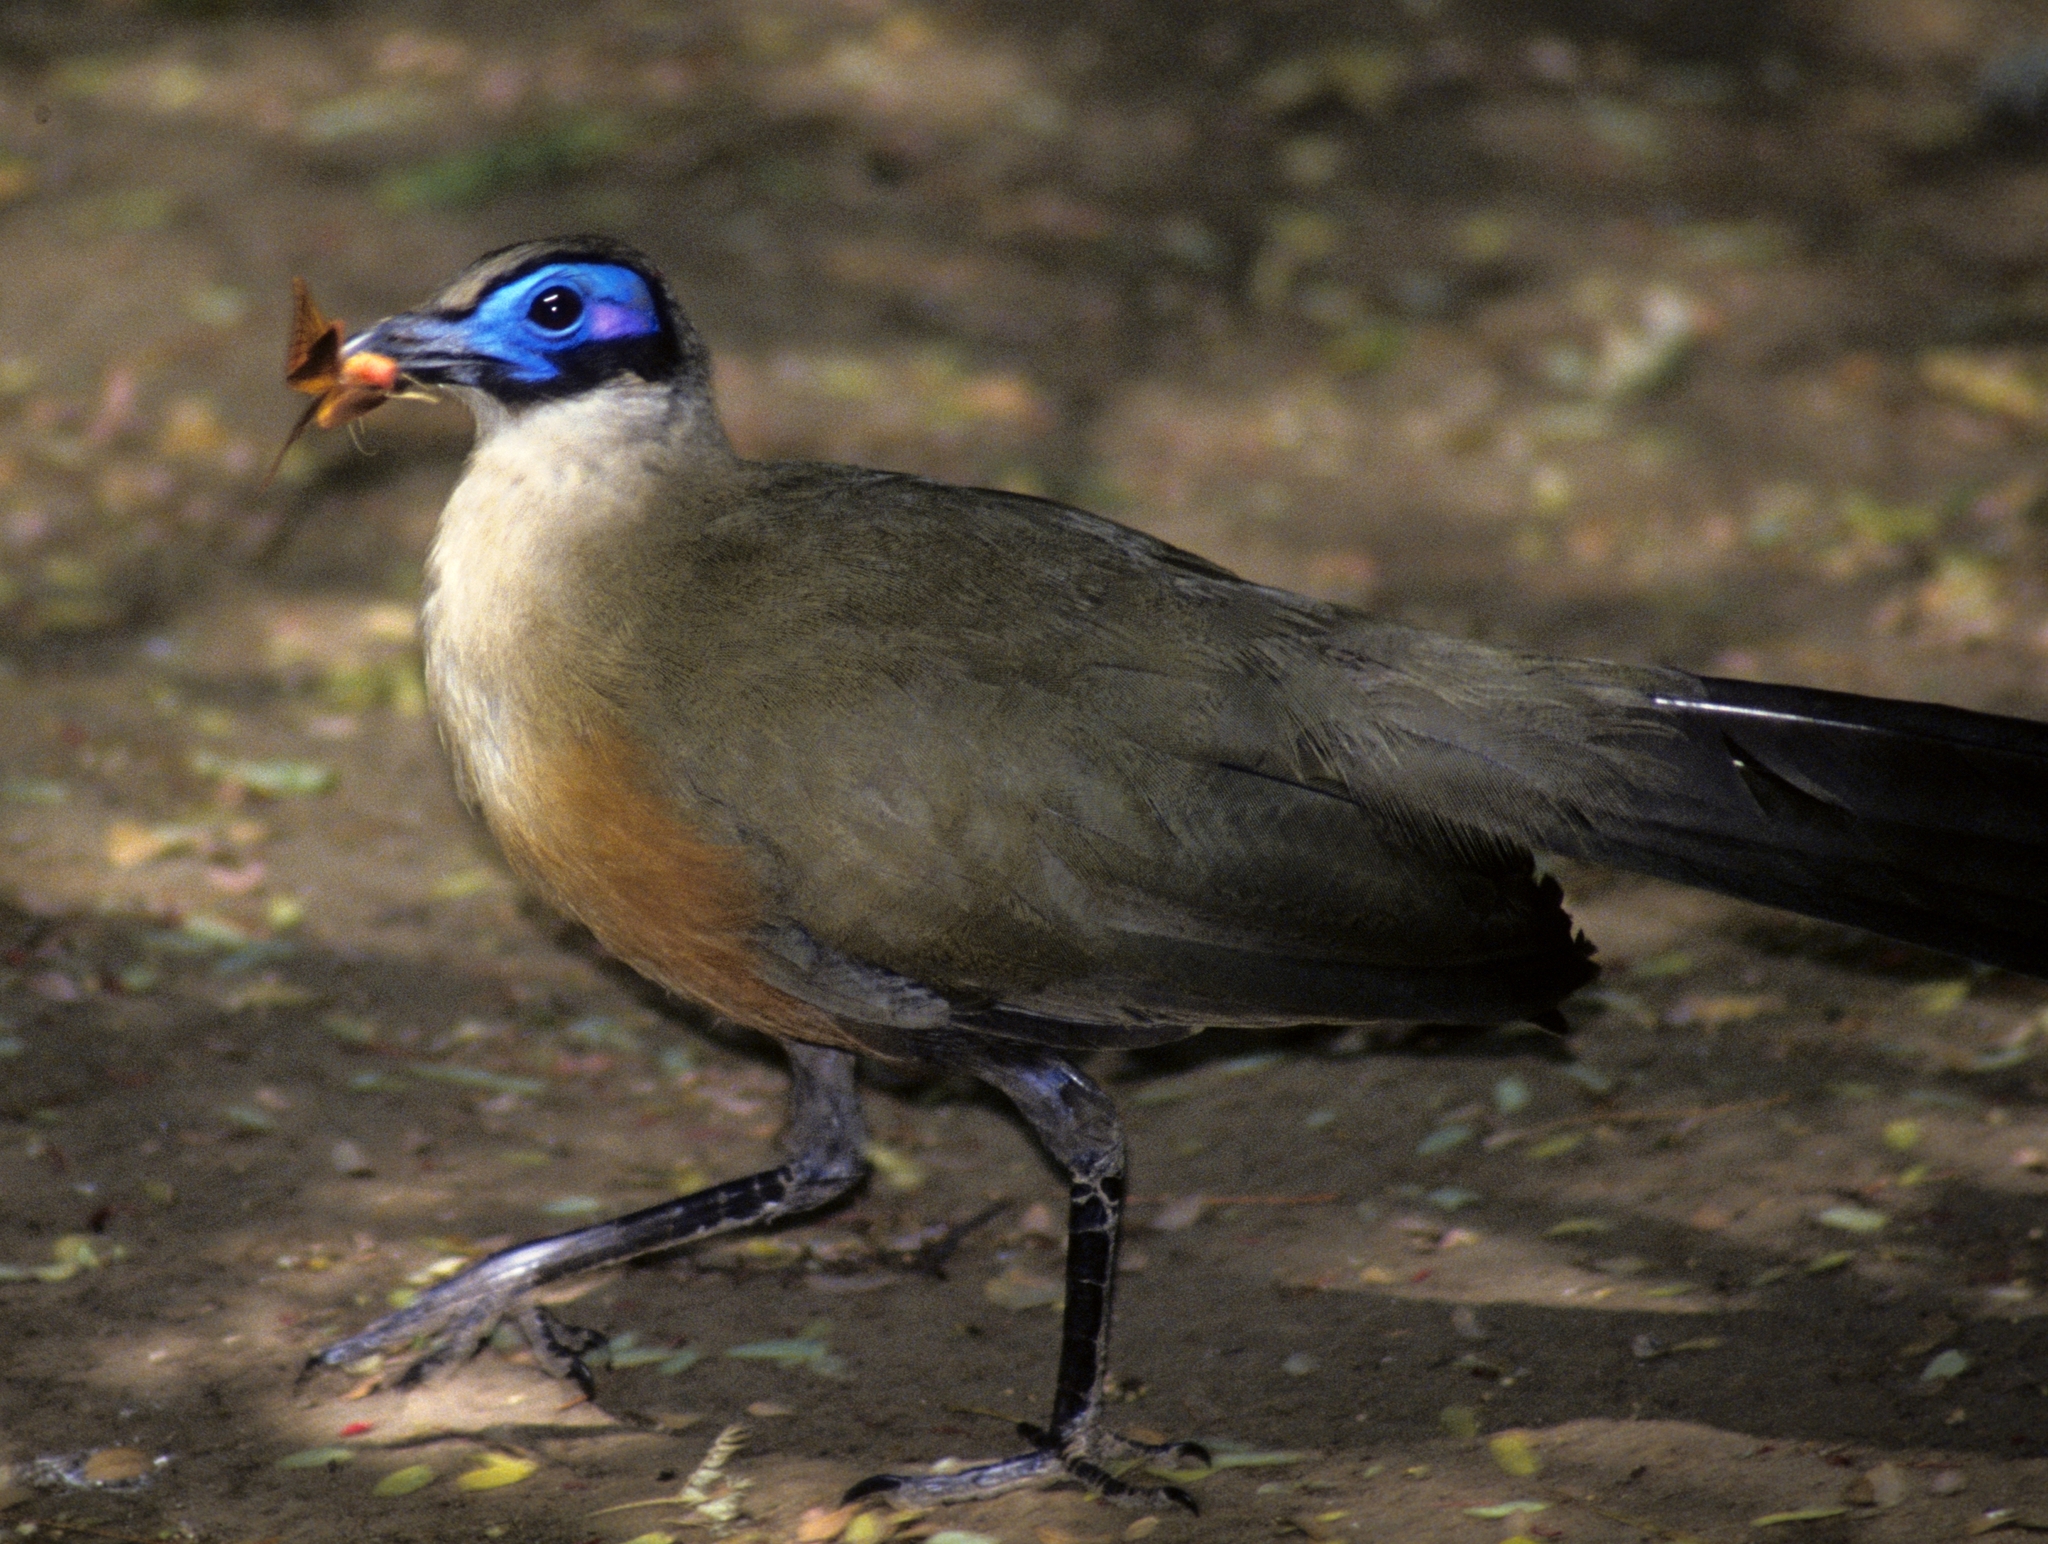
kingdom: Animalia
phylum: Chordata
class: Aves
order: Cuculiformes
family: Cuculidae
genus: Coua
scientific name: Coua gigas
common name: Giant coua
